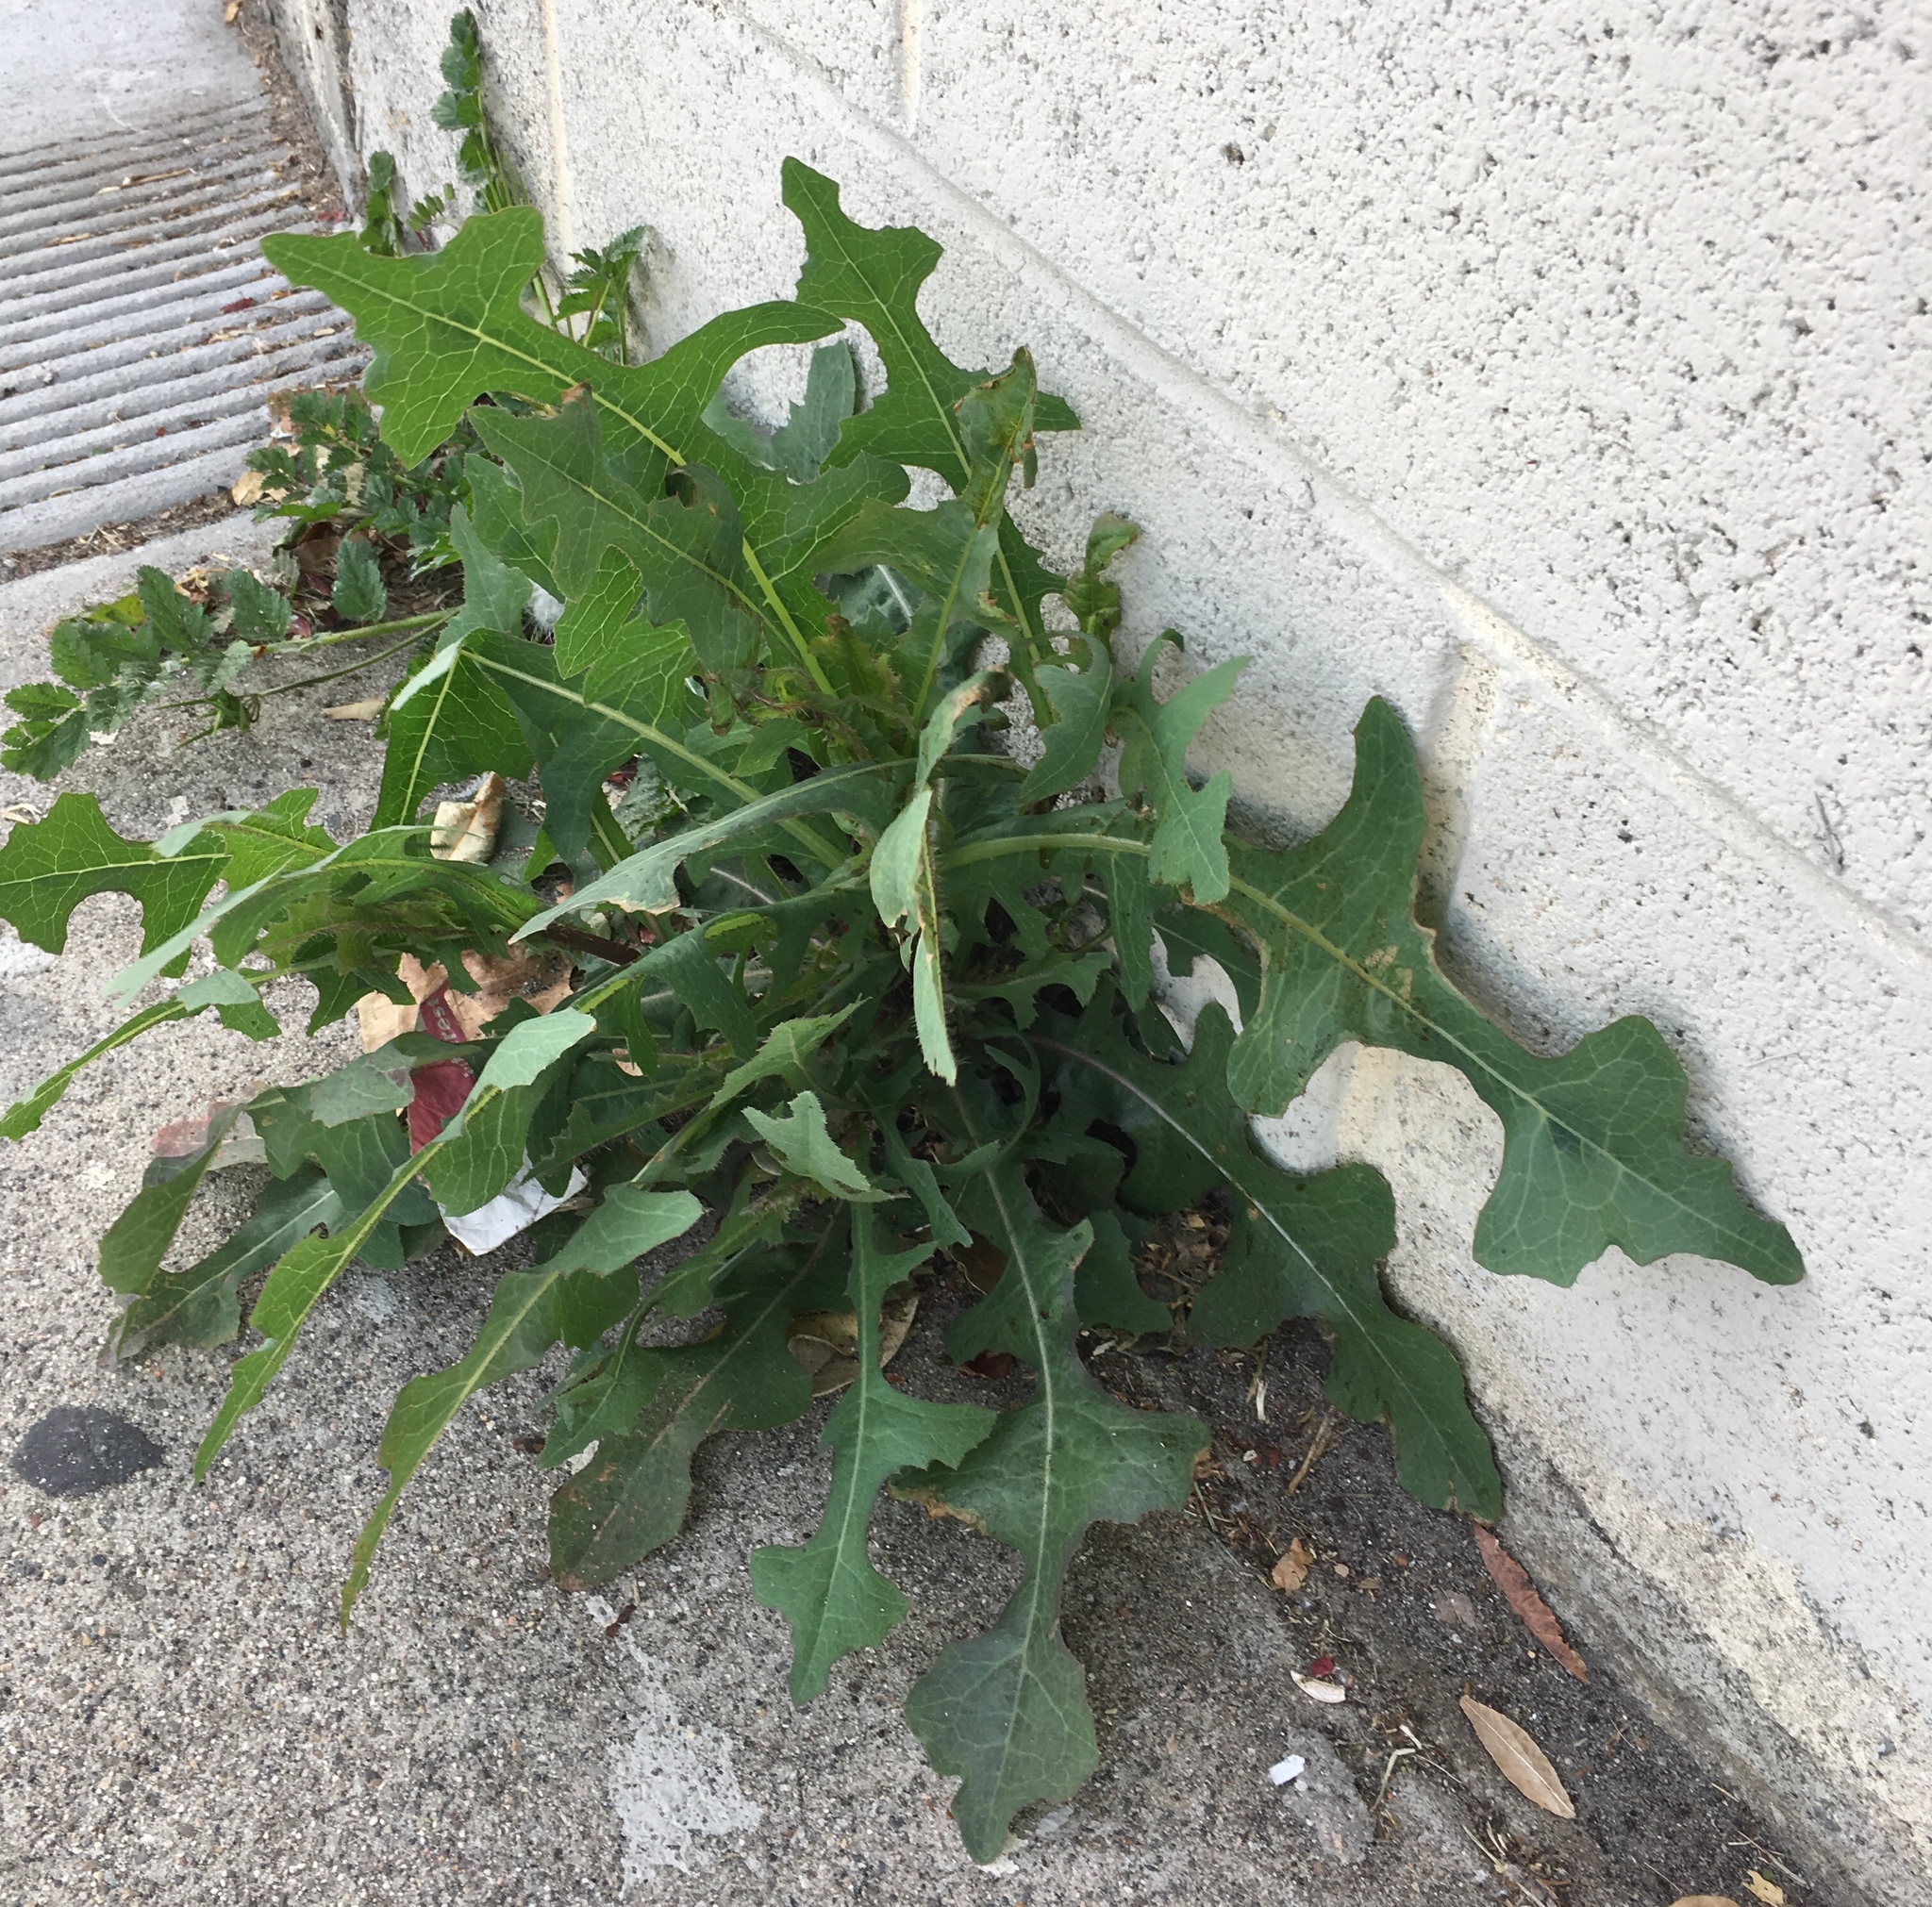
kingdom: Plantae
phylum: Tracheophyta
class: Magnoliopsida
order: Asterales
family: Asteraceae
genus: Lactuca
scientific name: Lactuca serriola
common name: Prickly lettuce
